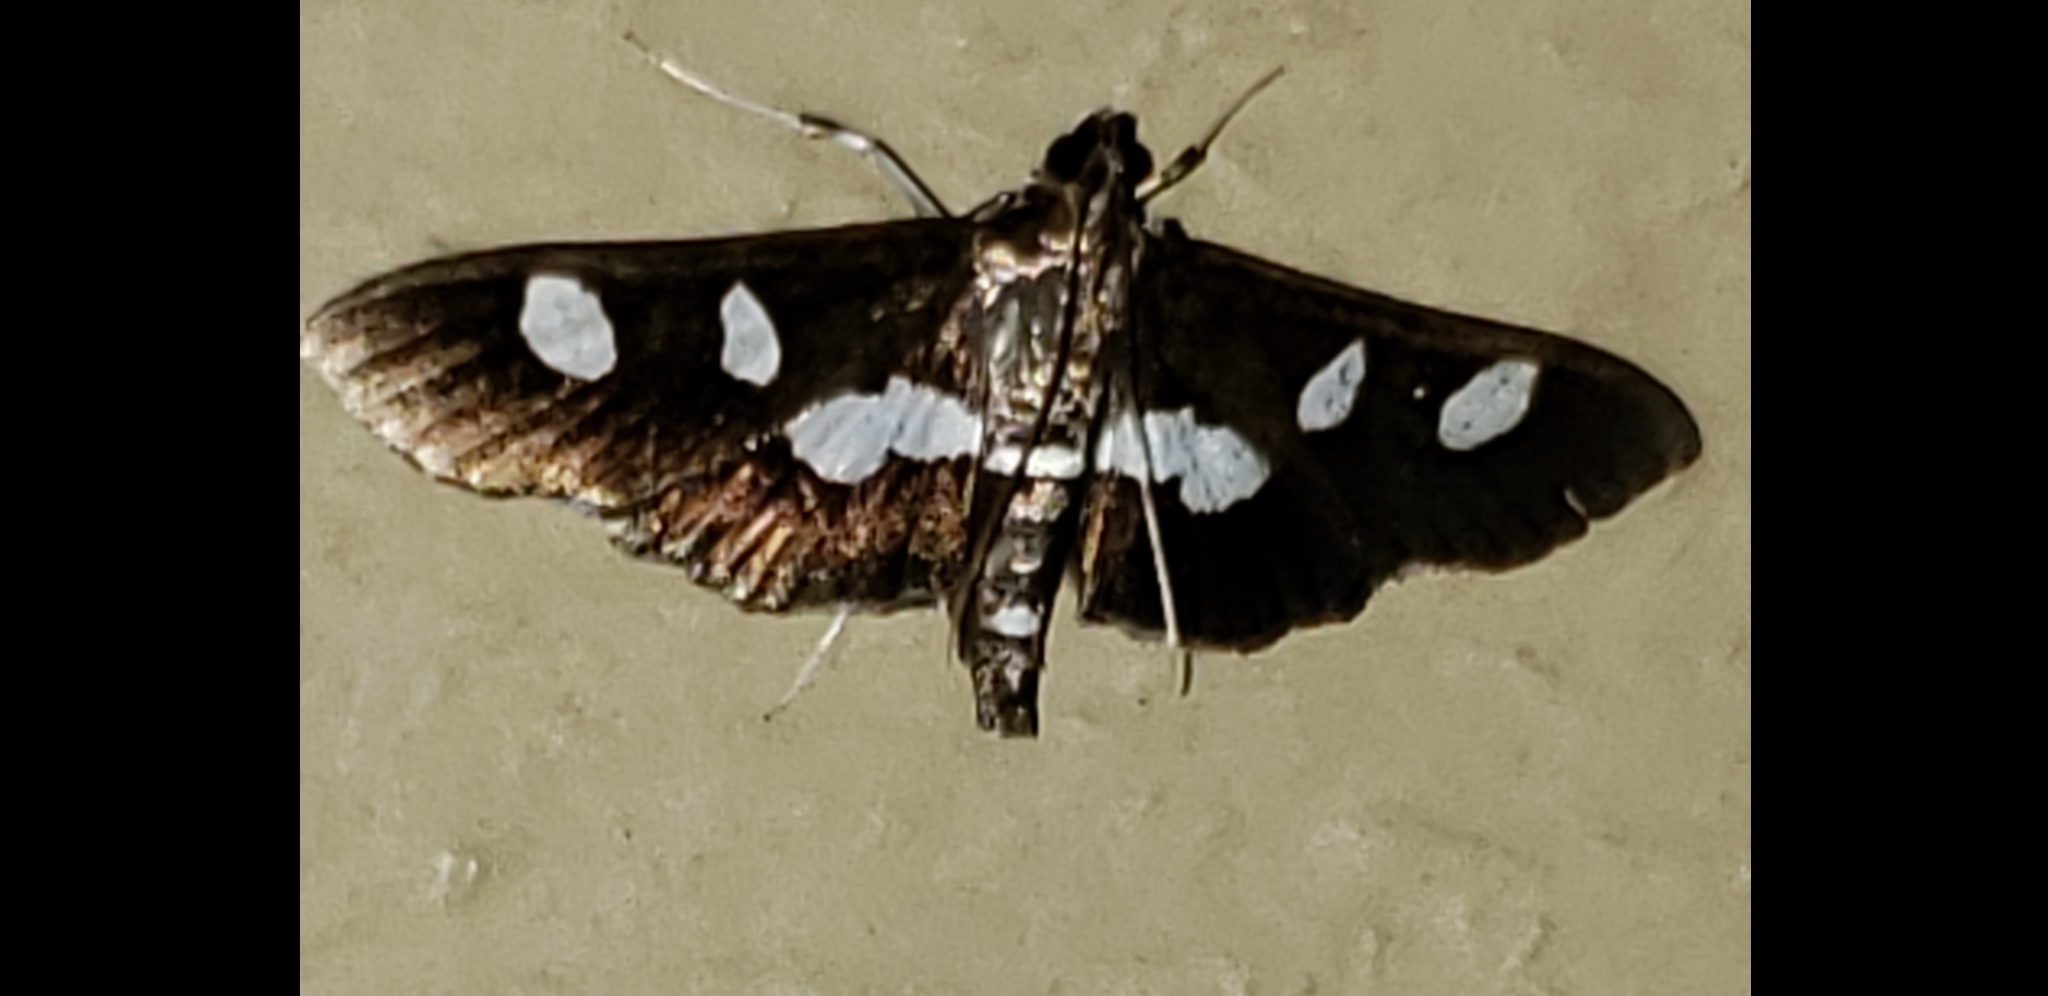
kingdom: Animalia
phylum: Arthropoda
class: Insecta
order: Lepidoptera
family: Crambidae
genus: Desmia
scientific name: Desmia
